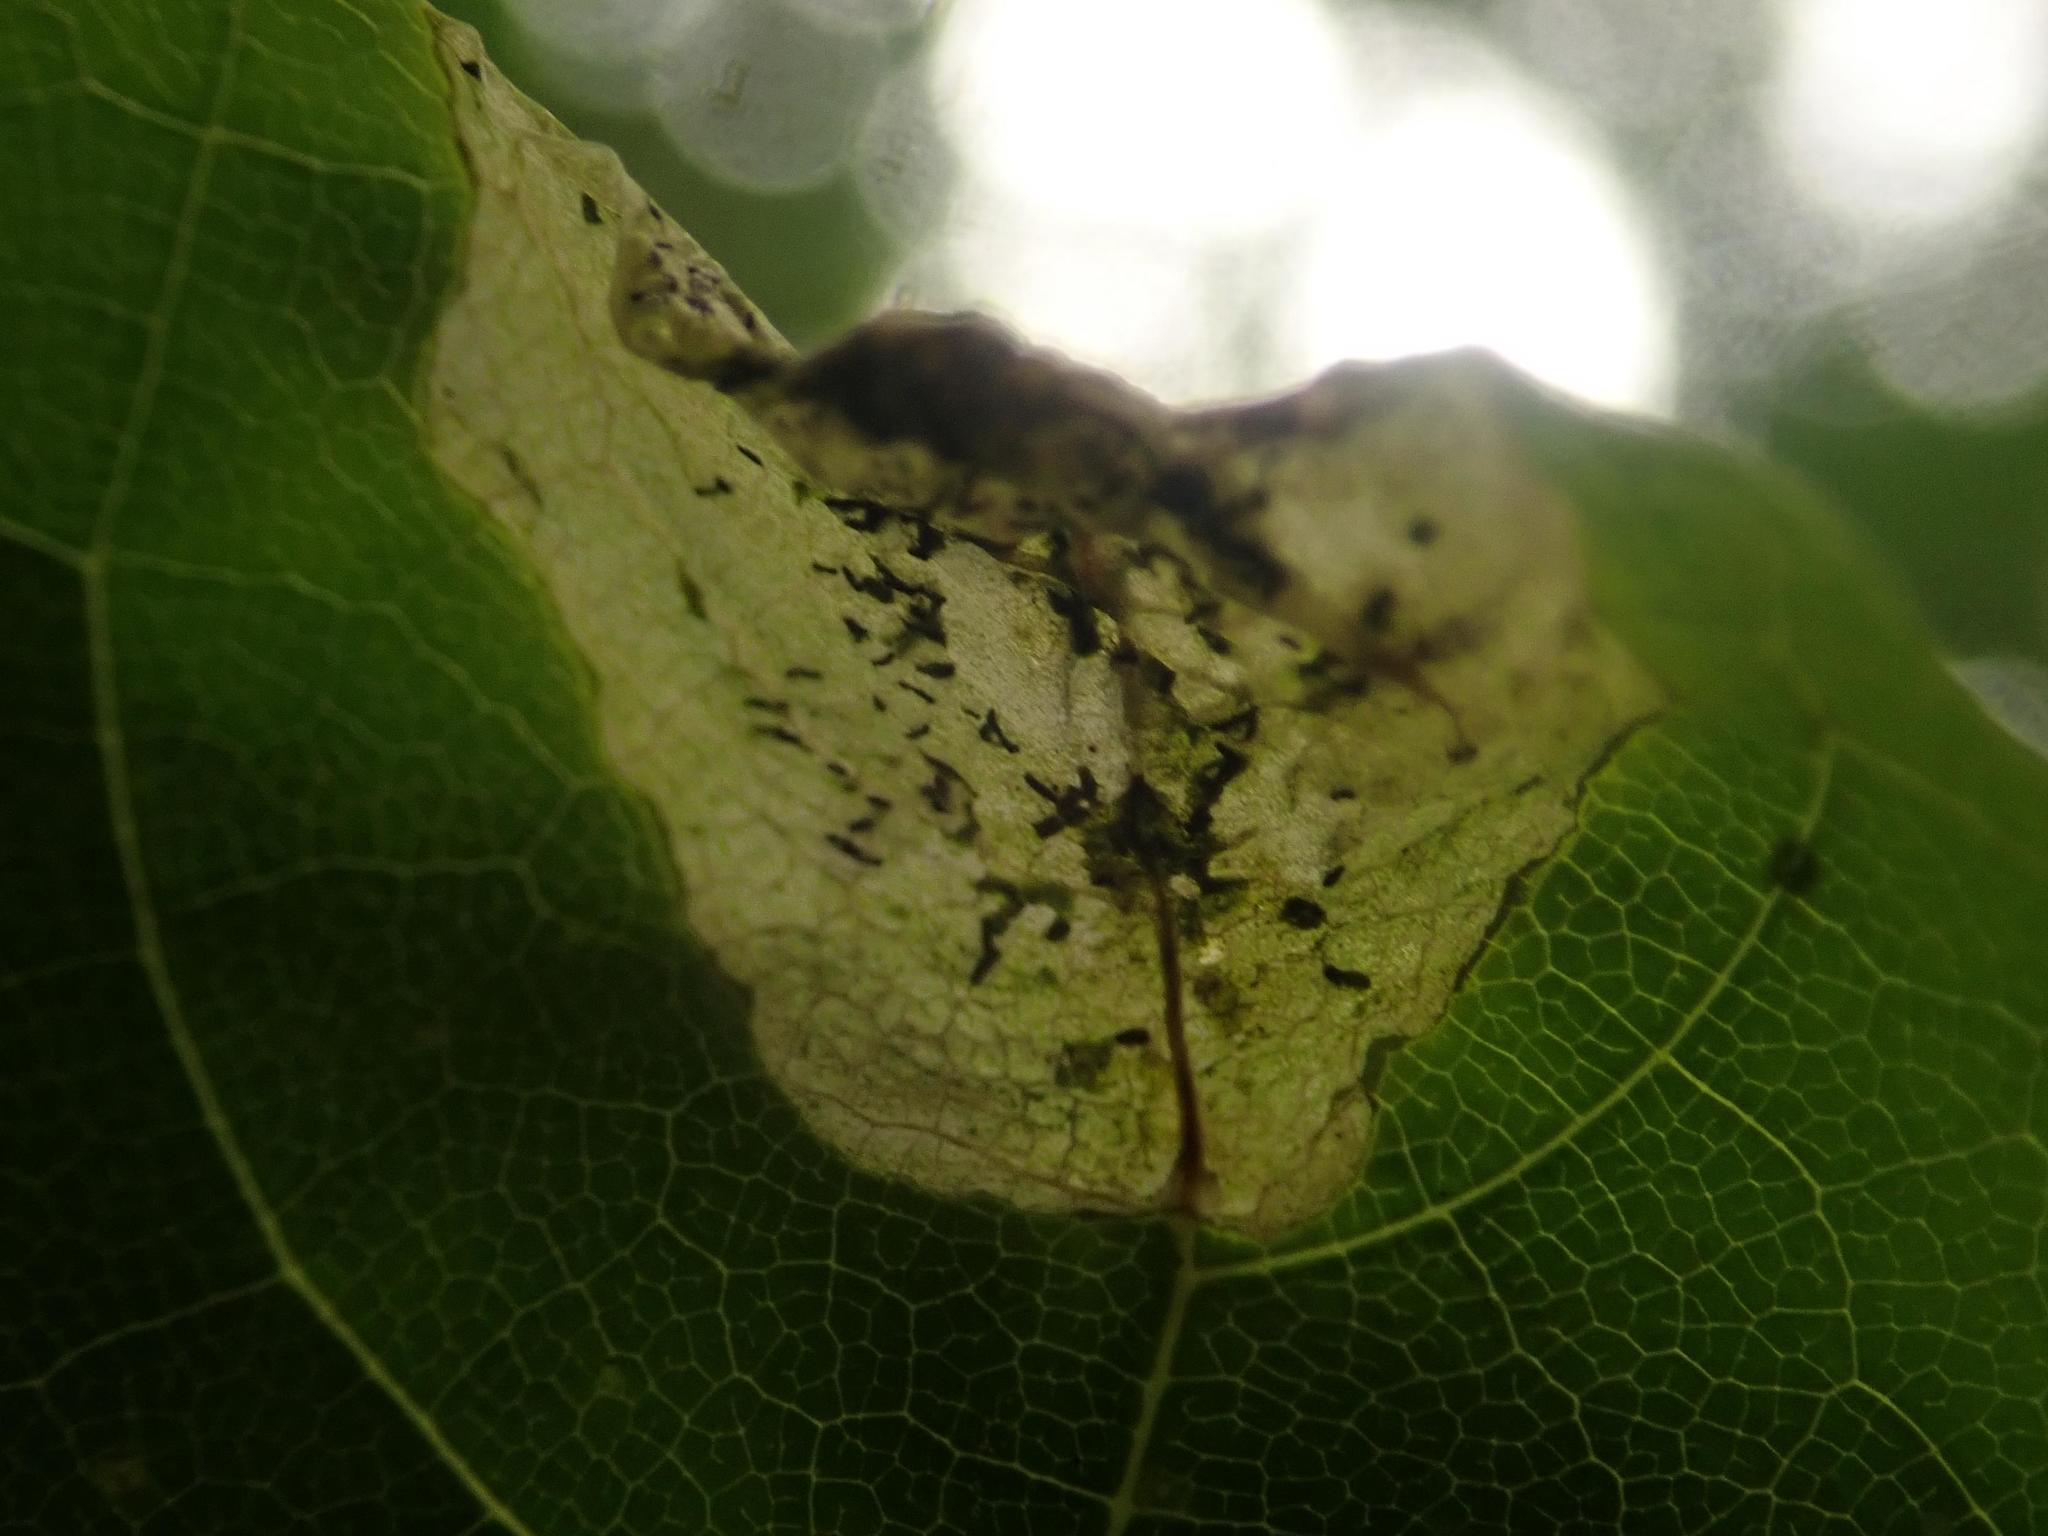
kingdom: Animalia
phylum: Arthropoda
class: Insecta
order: Hymenoptera
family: Tenthredinidae
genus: Hinatara
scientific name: Hinatara recta
